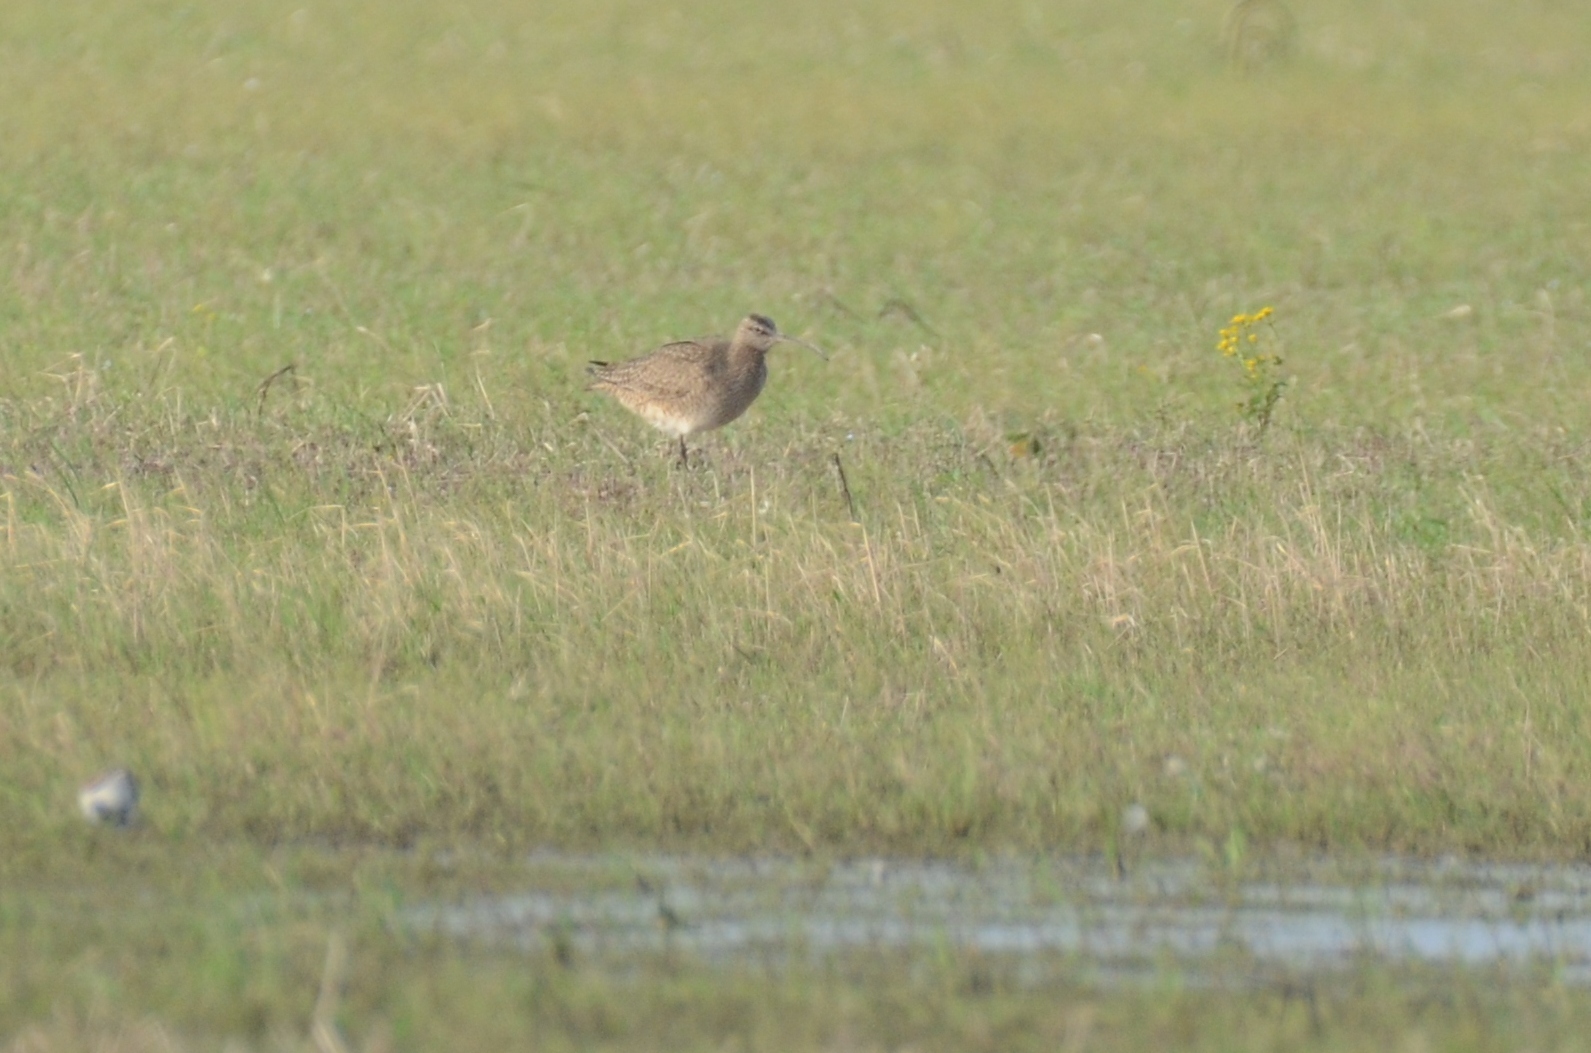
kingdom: Animalia
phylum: Chordata
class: Aves
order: Charadriiformes
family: Scolopacidae
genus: Numenius
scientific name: Numenius phaeopus
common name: Whimbrel
